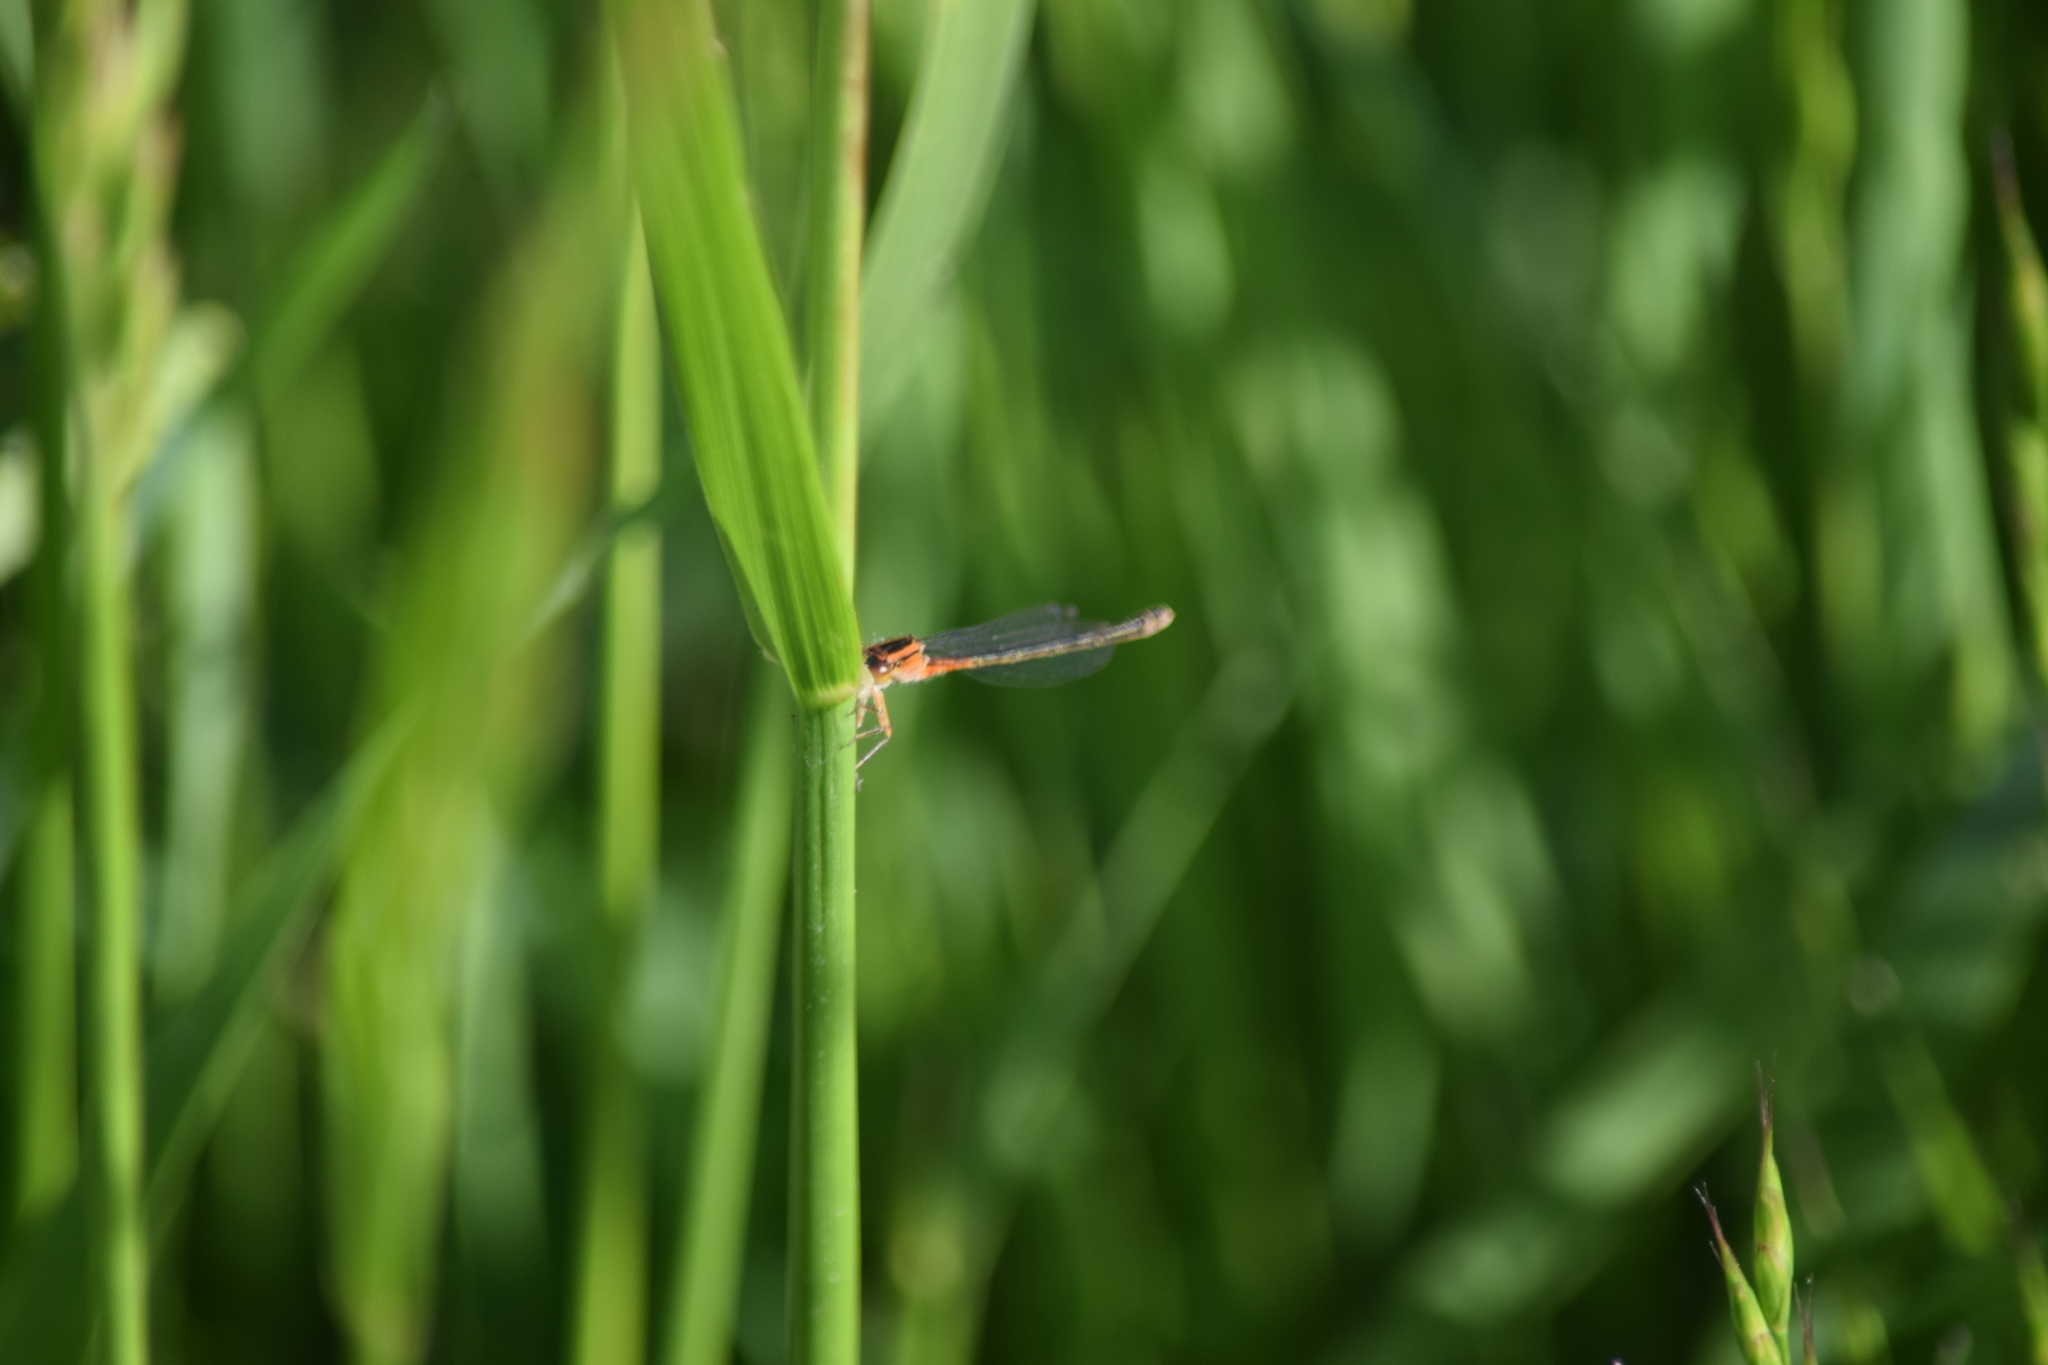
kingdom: Animalia
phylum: Arthropoda
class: Insecta
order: Odonata
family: Coenagrionidae
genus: Ischnura
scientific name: Ischnura verticalis
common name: Eastern forktail
